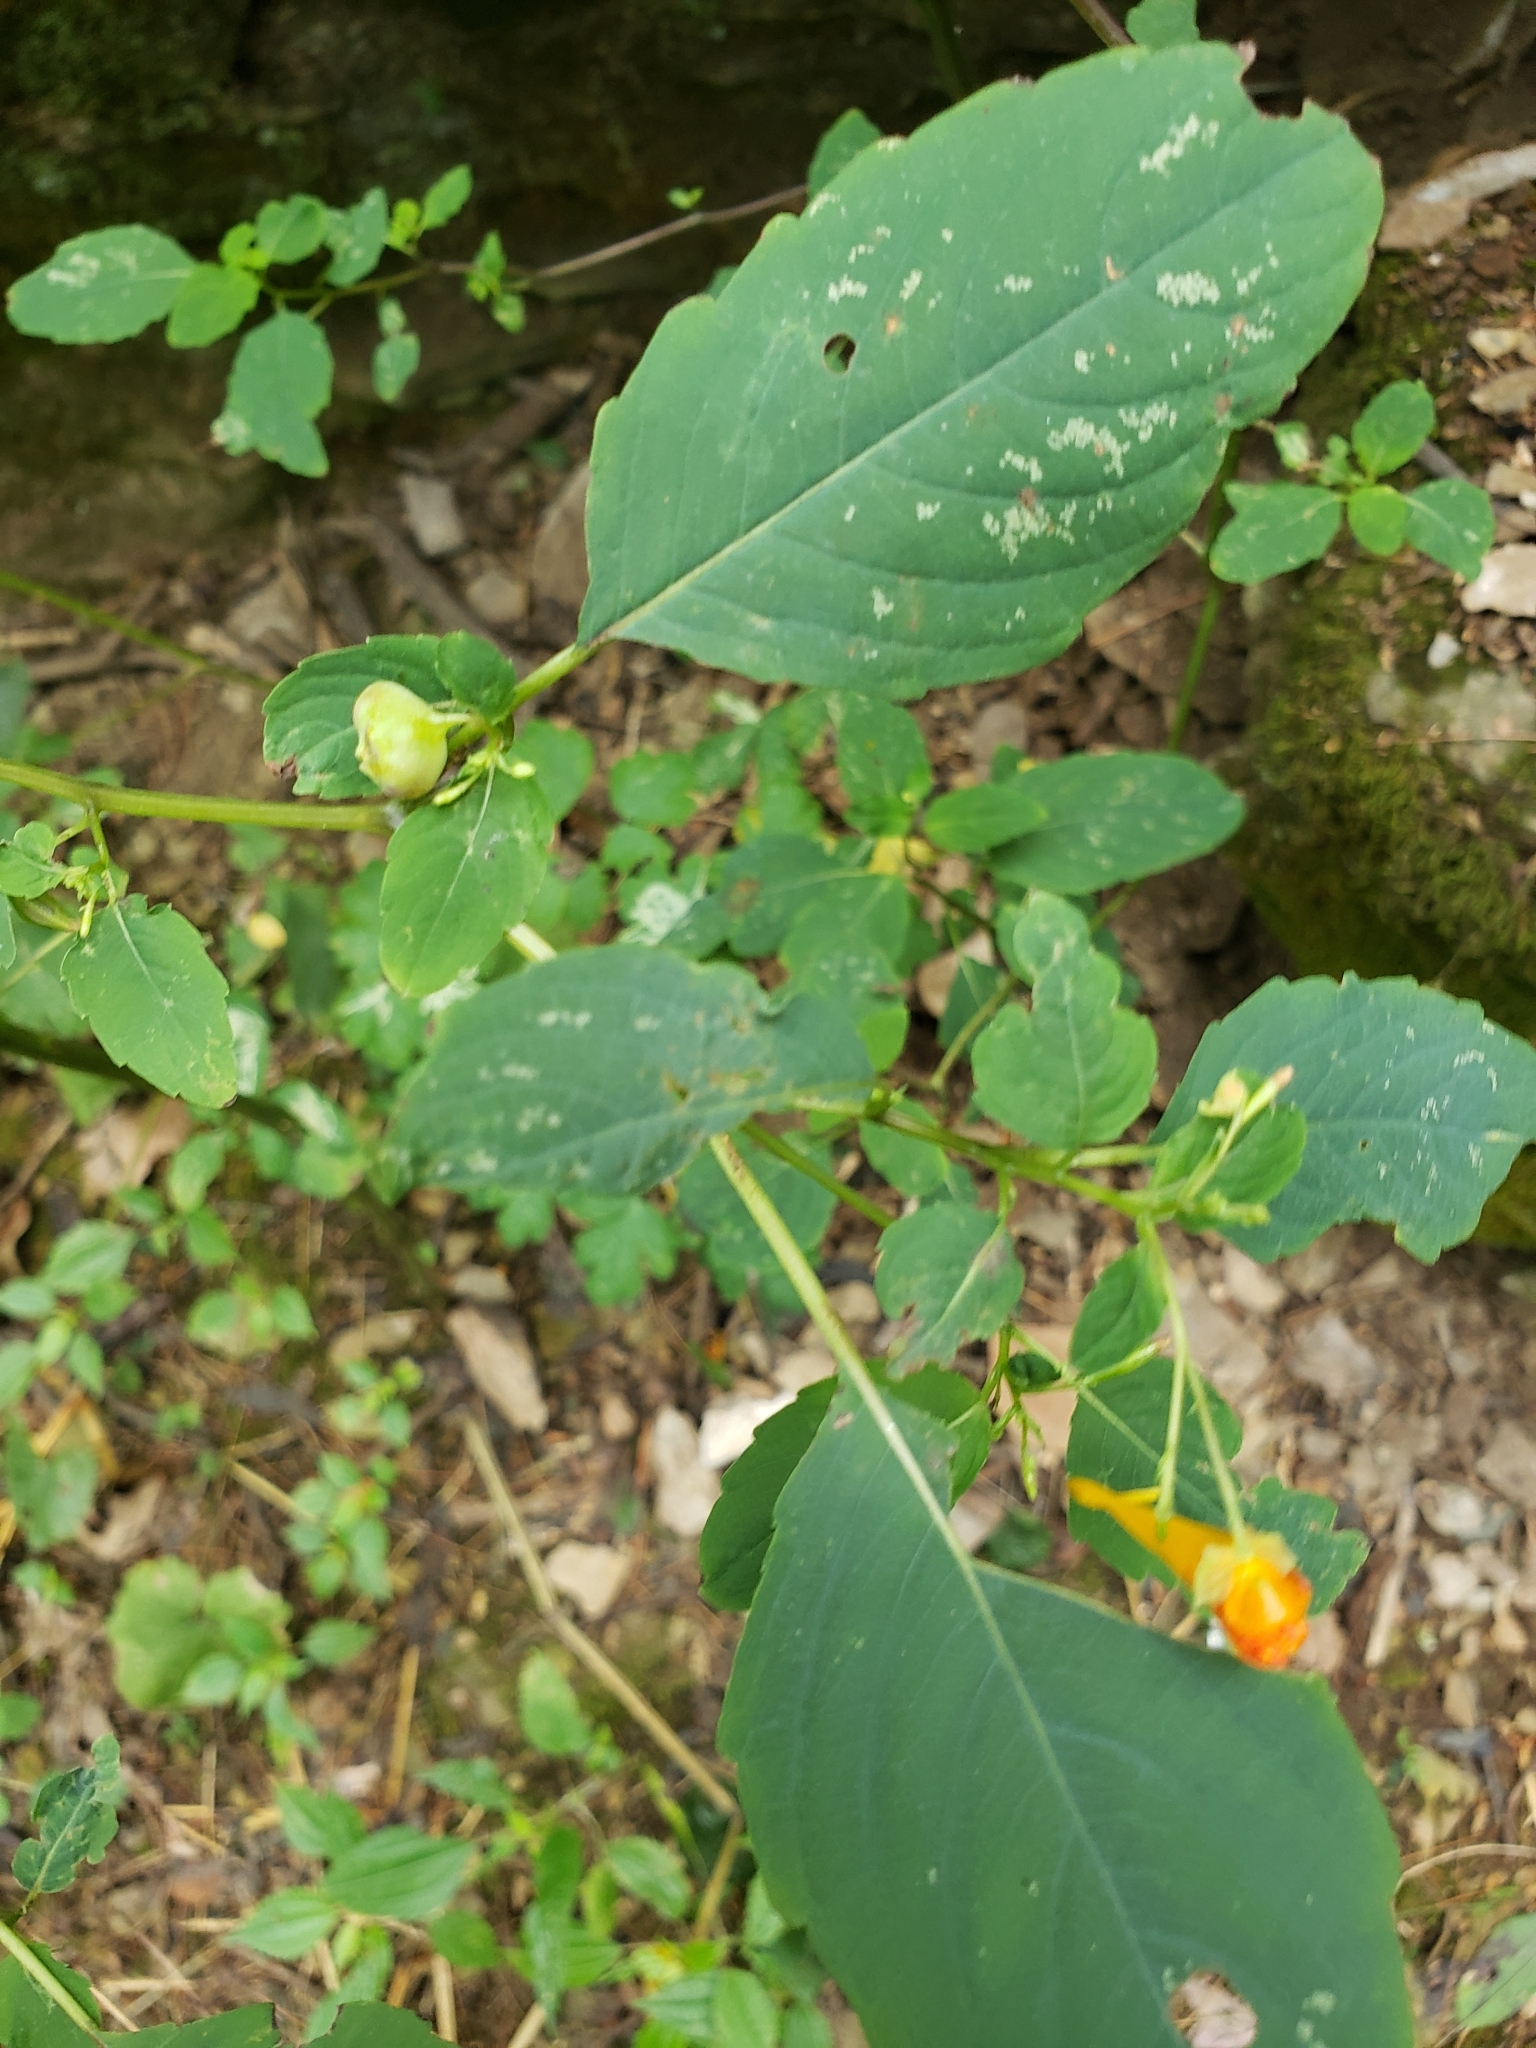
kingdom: Animalia
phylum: Arthropoda
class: Insecta
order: Diptera
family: Cecidomyiidae
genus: Schizomyia
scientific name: Schizomyia impatientis
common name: Jewelweed gall midge
